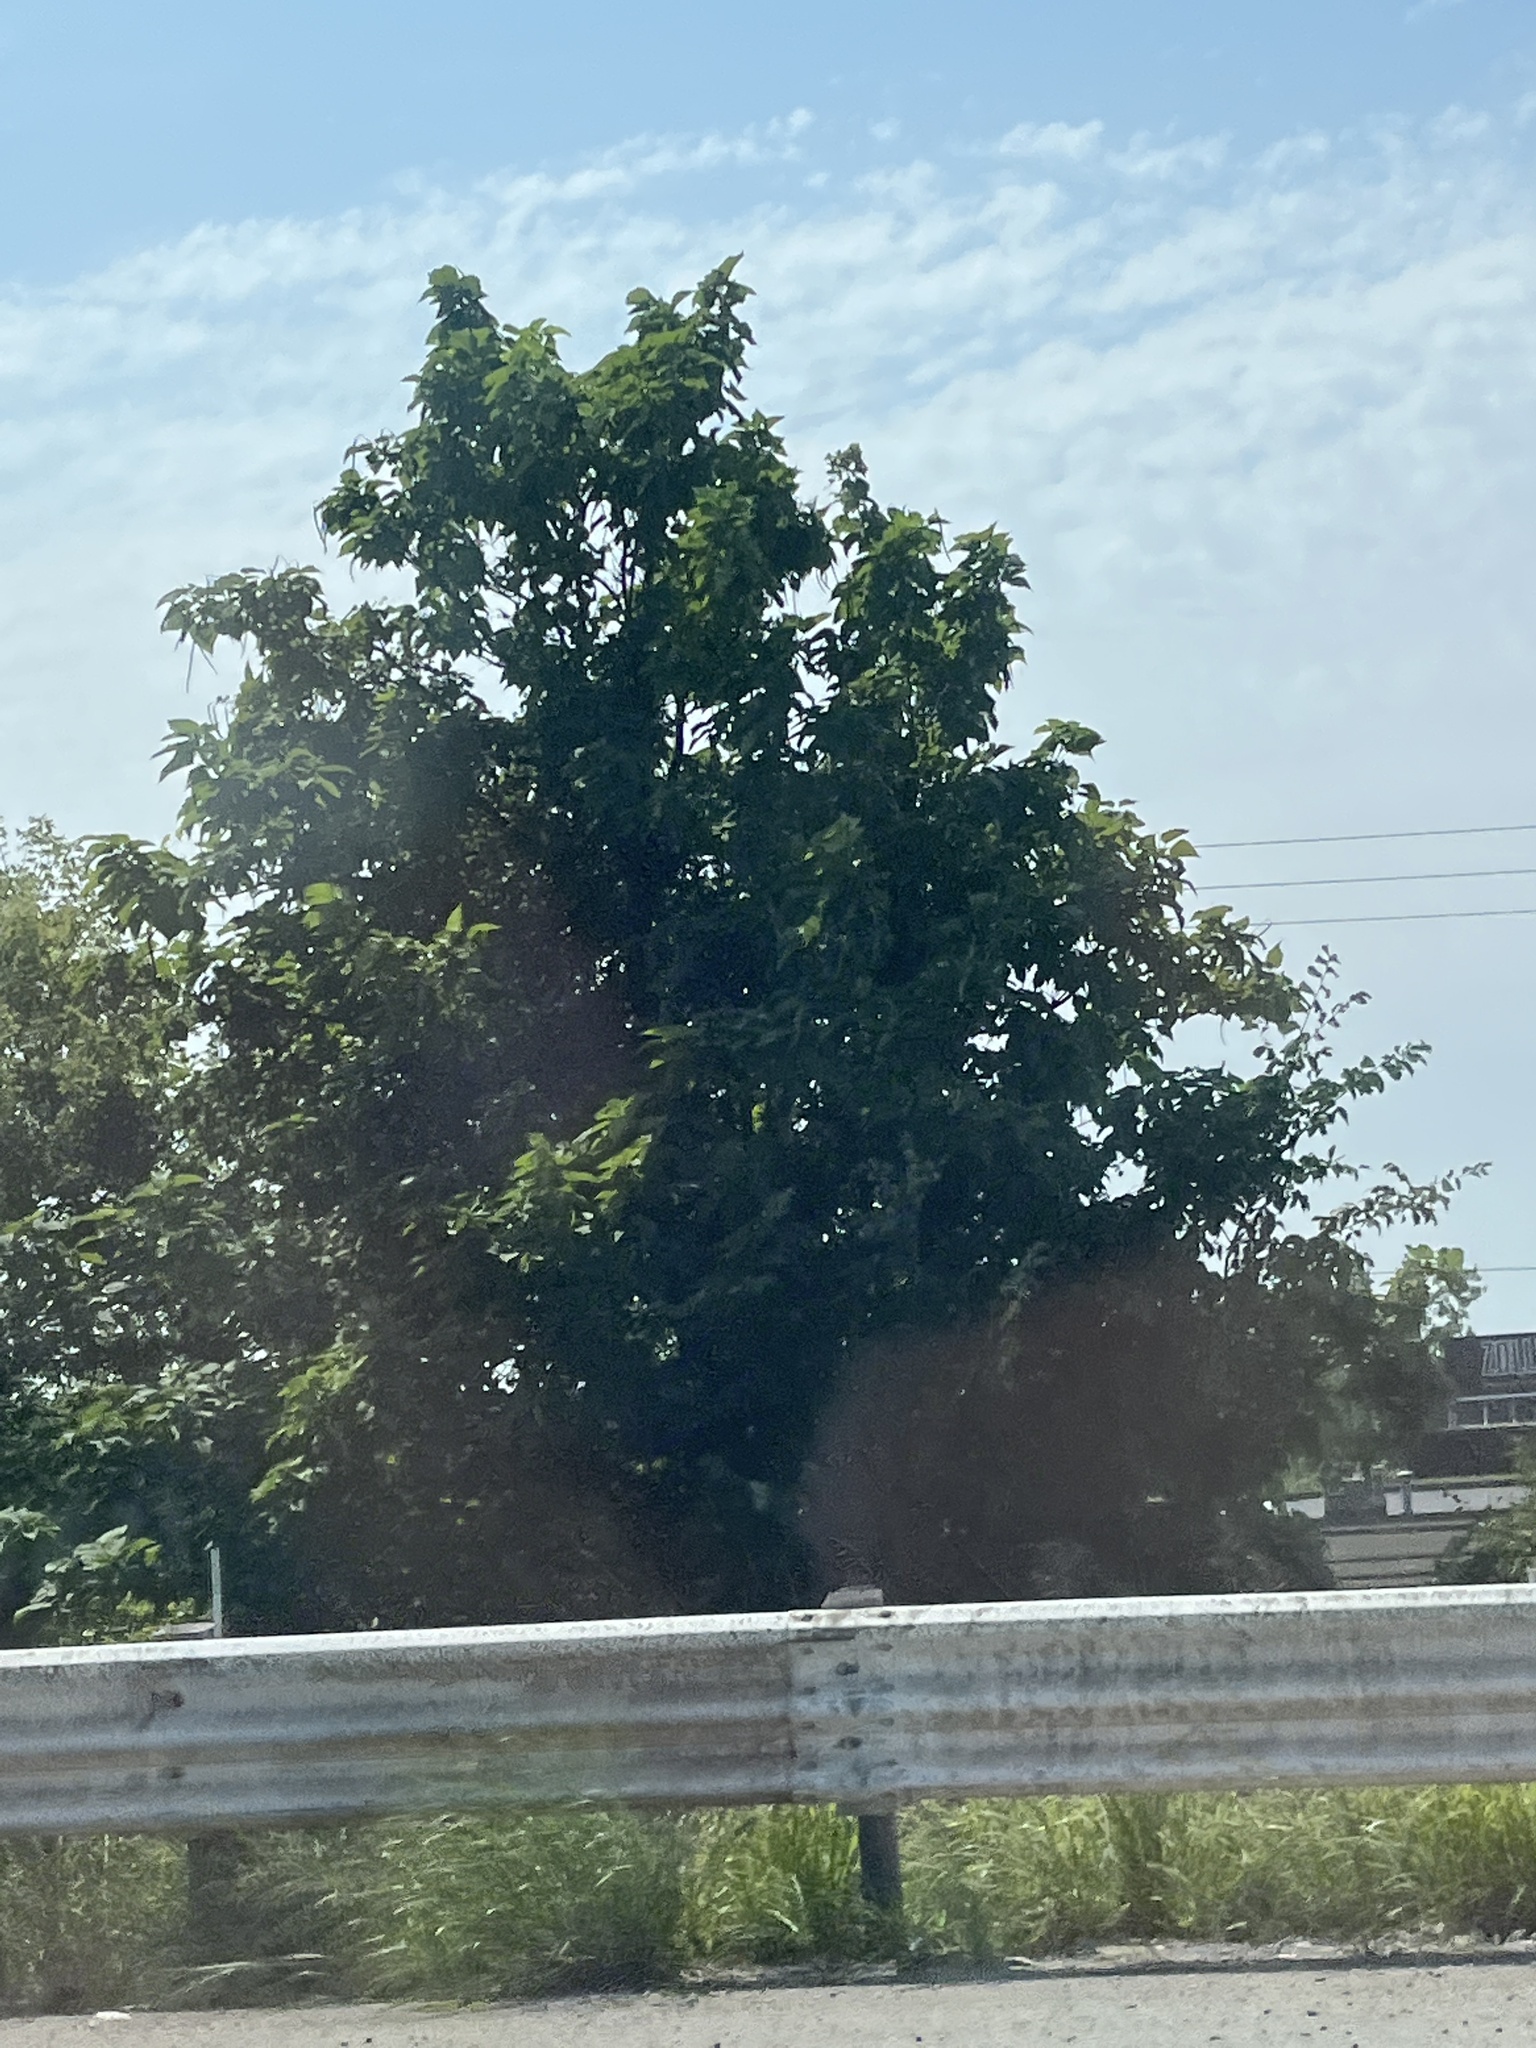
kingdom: Plantae
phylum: Tracheophyta
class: Magnoliopsida
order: Sapindales
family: Sapindaceae
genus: Acer
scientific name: Acer negundo
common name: Ashleaf maple
